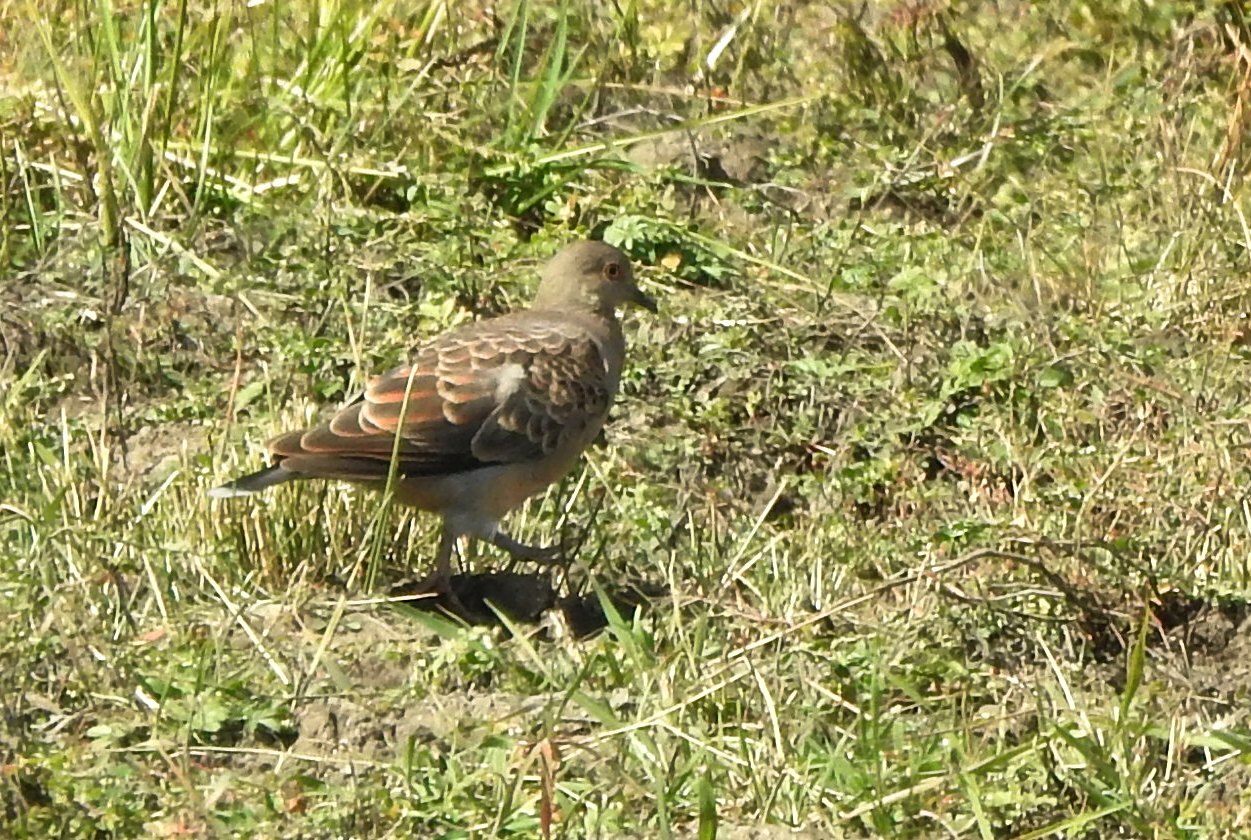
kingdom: Animalia
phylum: Chordata
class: Aves
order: Columbiformes
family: Columbidae
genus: Streptopelia
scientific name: Streptopelia orientalis
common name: Oriental turtle dove
